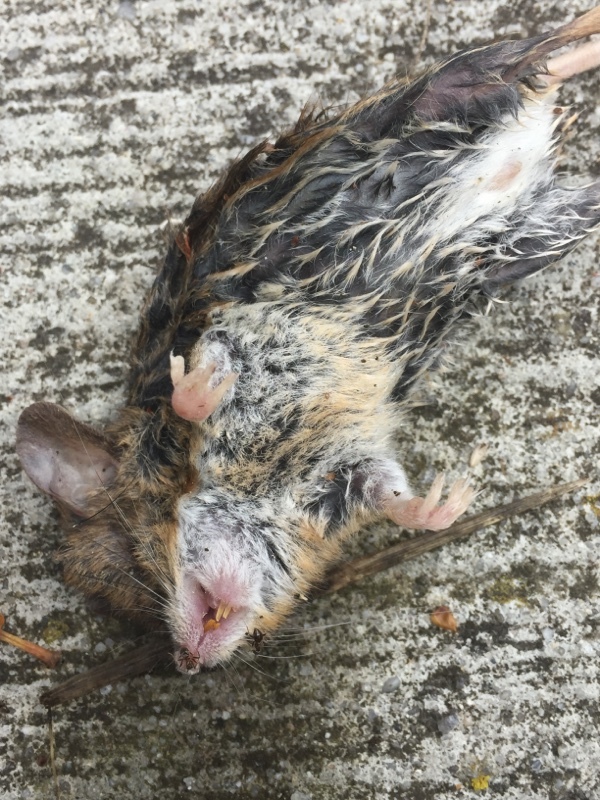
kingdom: Animalia
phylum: Chordata
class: Mammalia
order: Rodentia
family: Muridae
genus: Apodemus
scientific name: Apodemus sylvaticus
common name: Wood mouse
